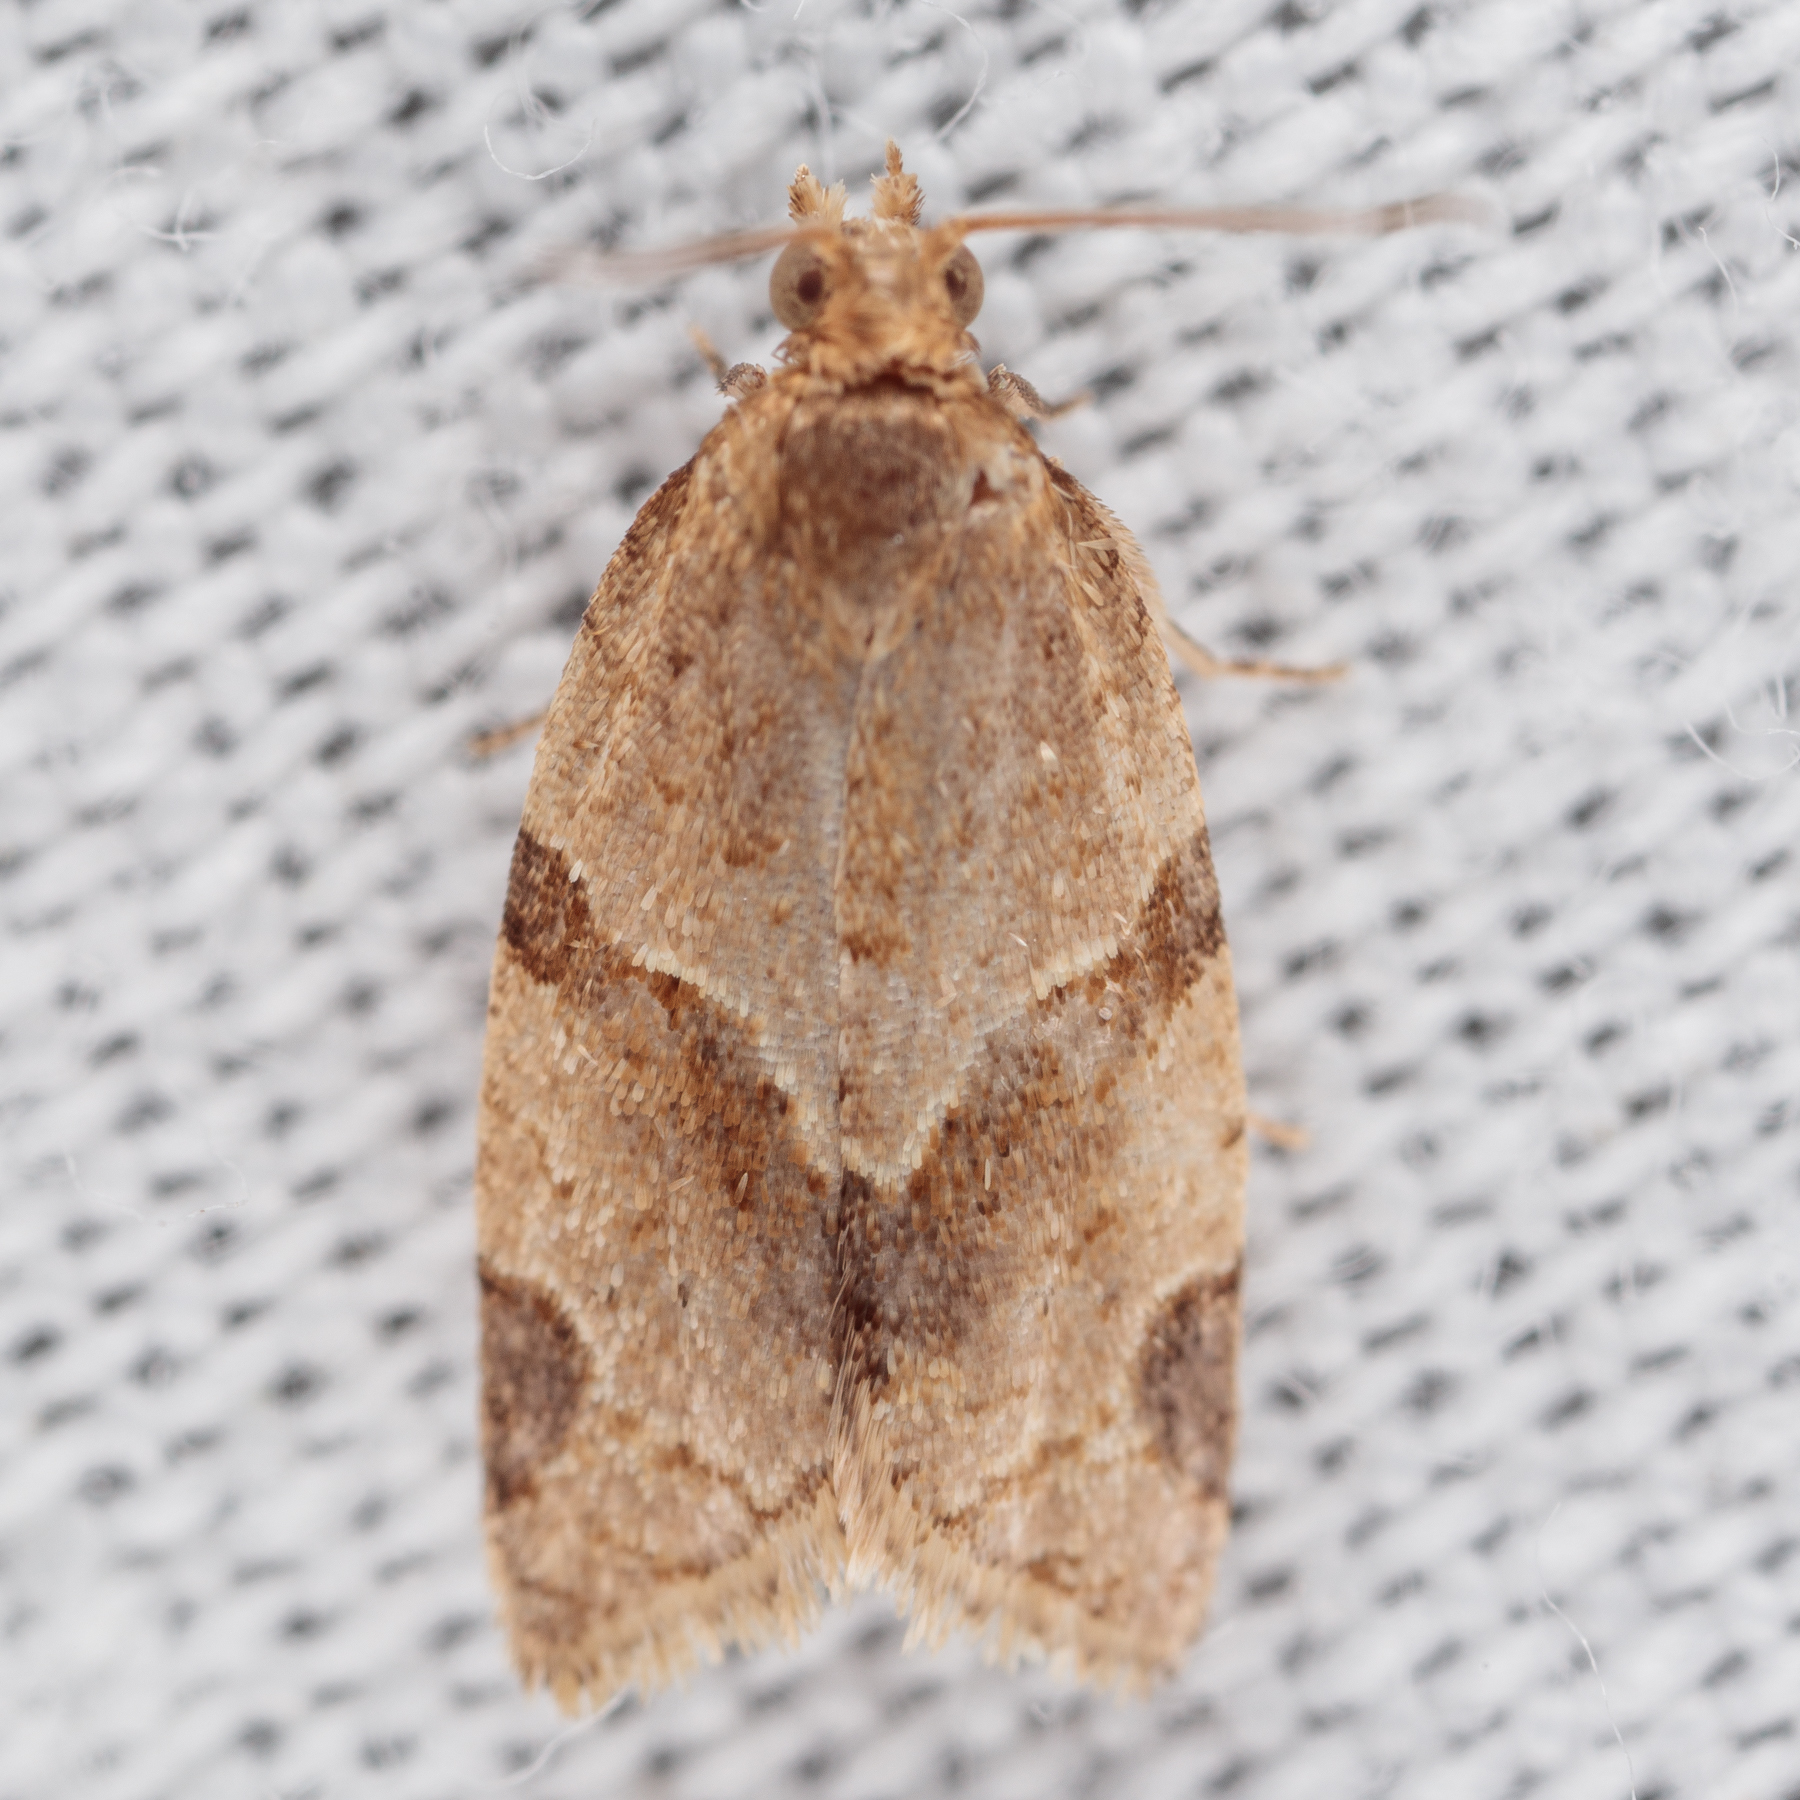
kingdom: Animalia
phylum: Arthropoda
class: Insecta
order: Lepidoptera
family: Tortricidae
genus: Clepsis
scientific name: Clepsis peritana
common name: Garden tortrix
